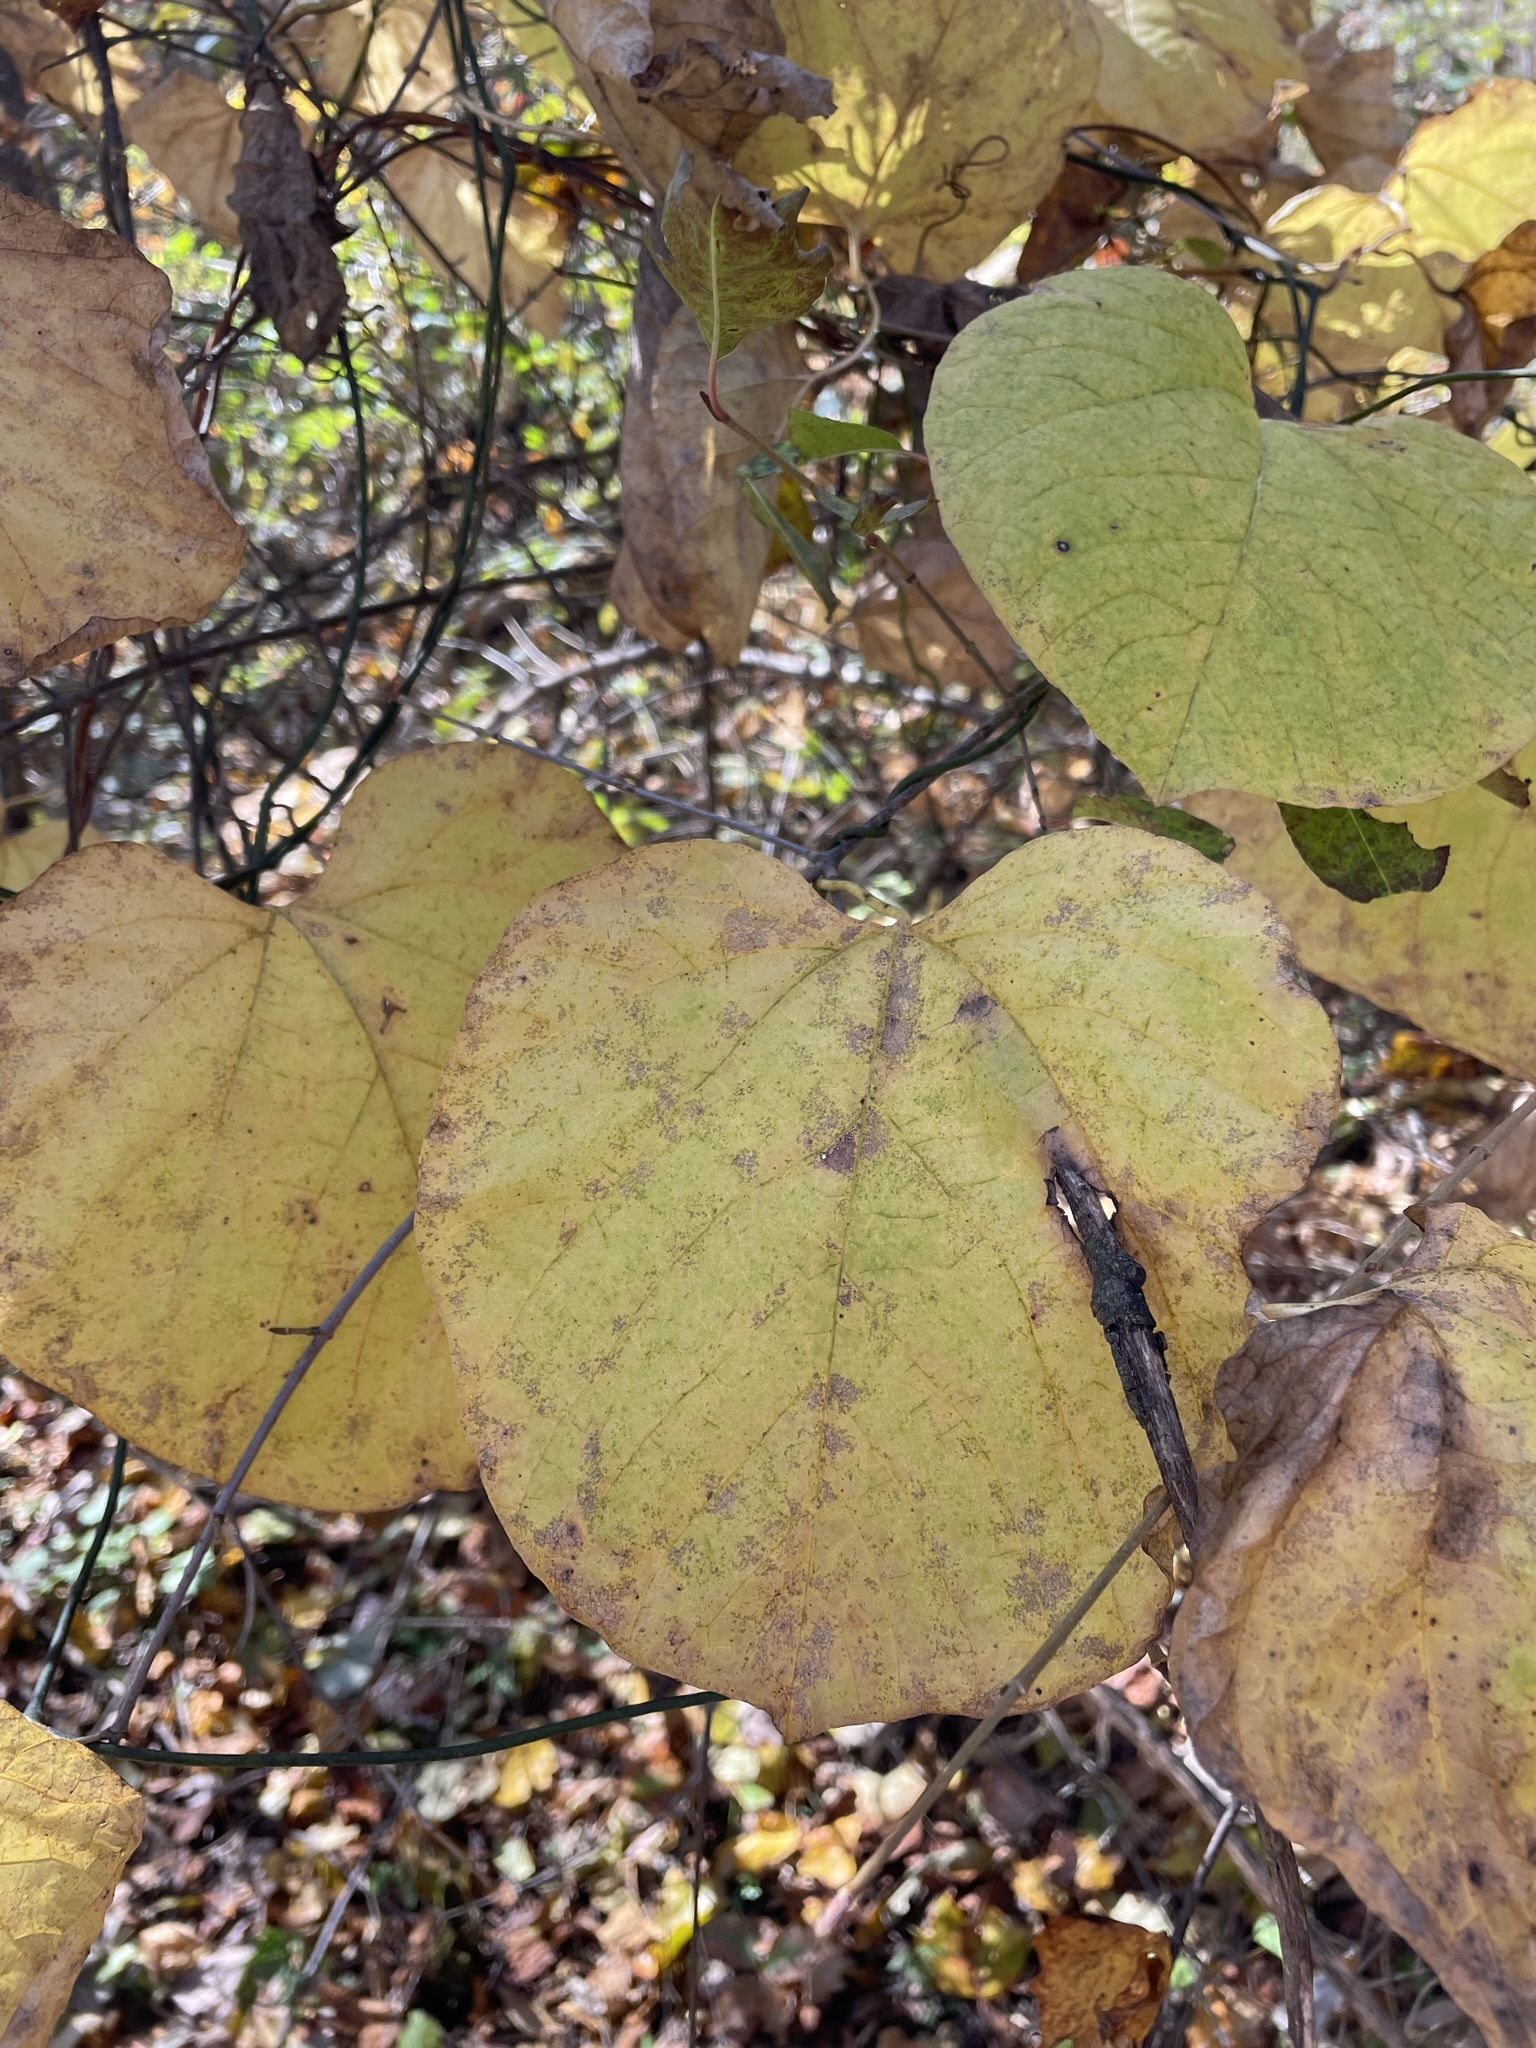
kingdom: Plantae
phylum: Tracheophyta
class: Magnoliopsida
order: Piperales
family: Aristolochiaceae
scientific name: Aristolochiaceae
